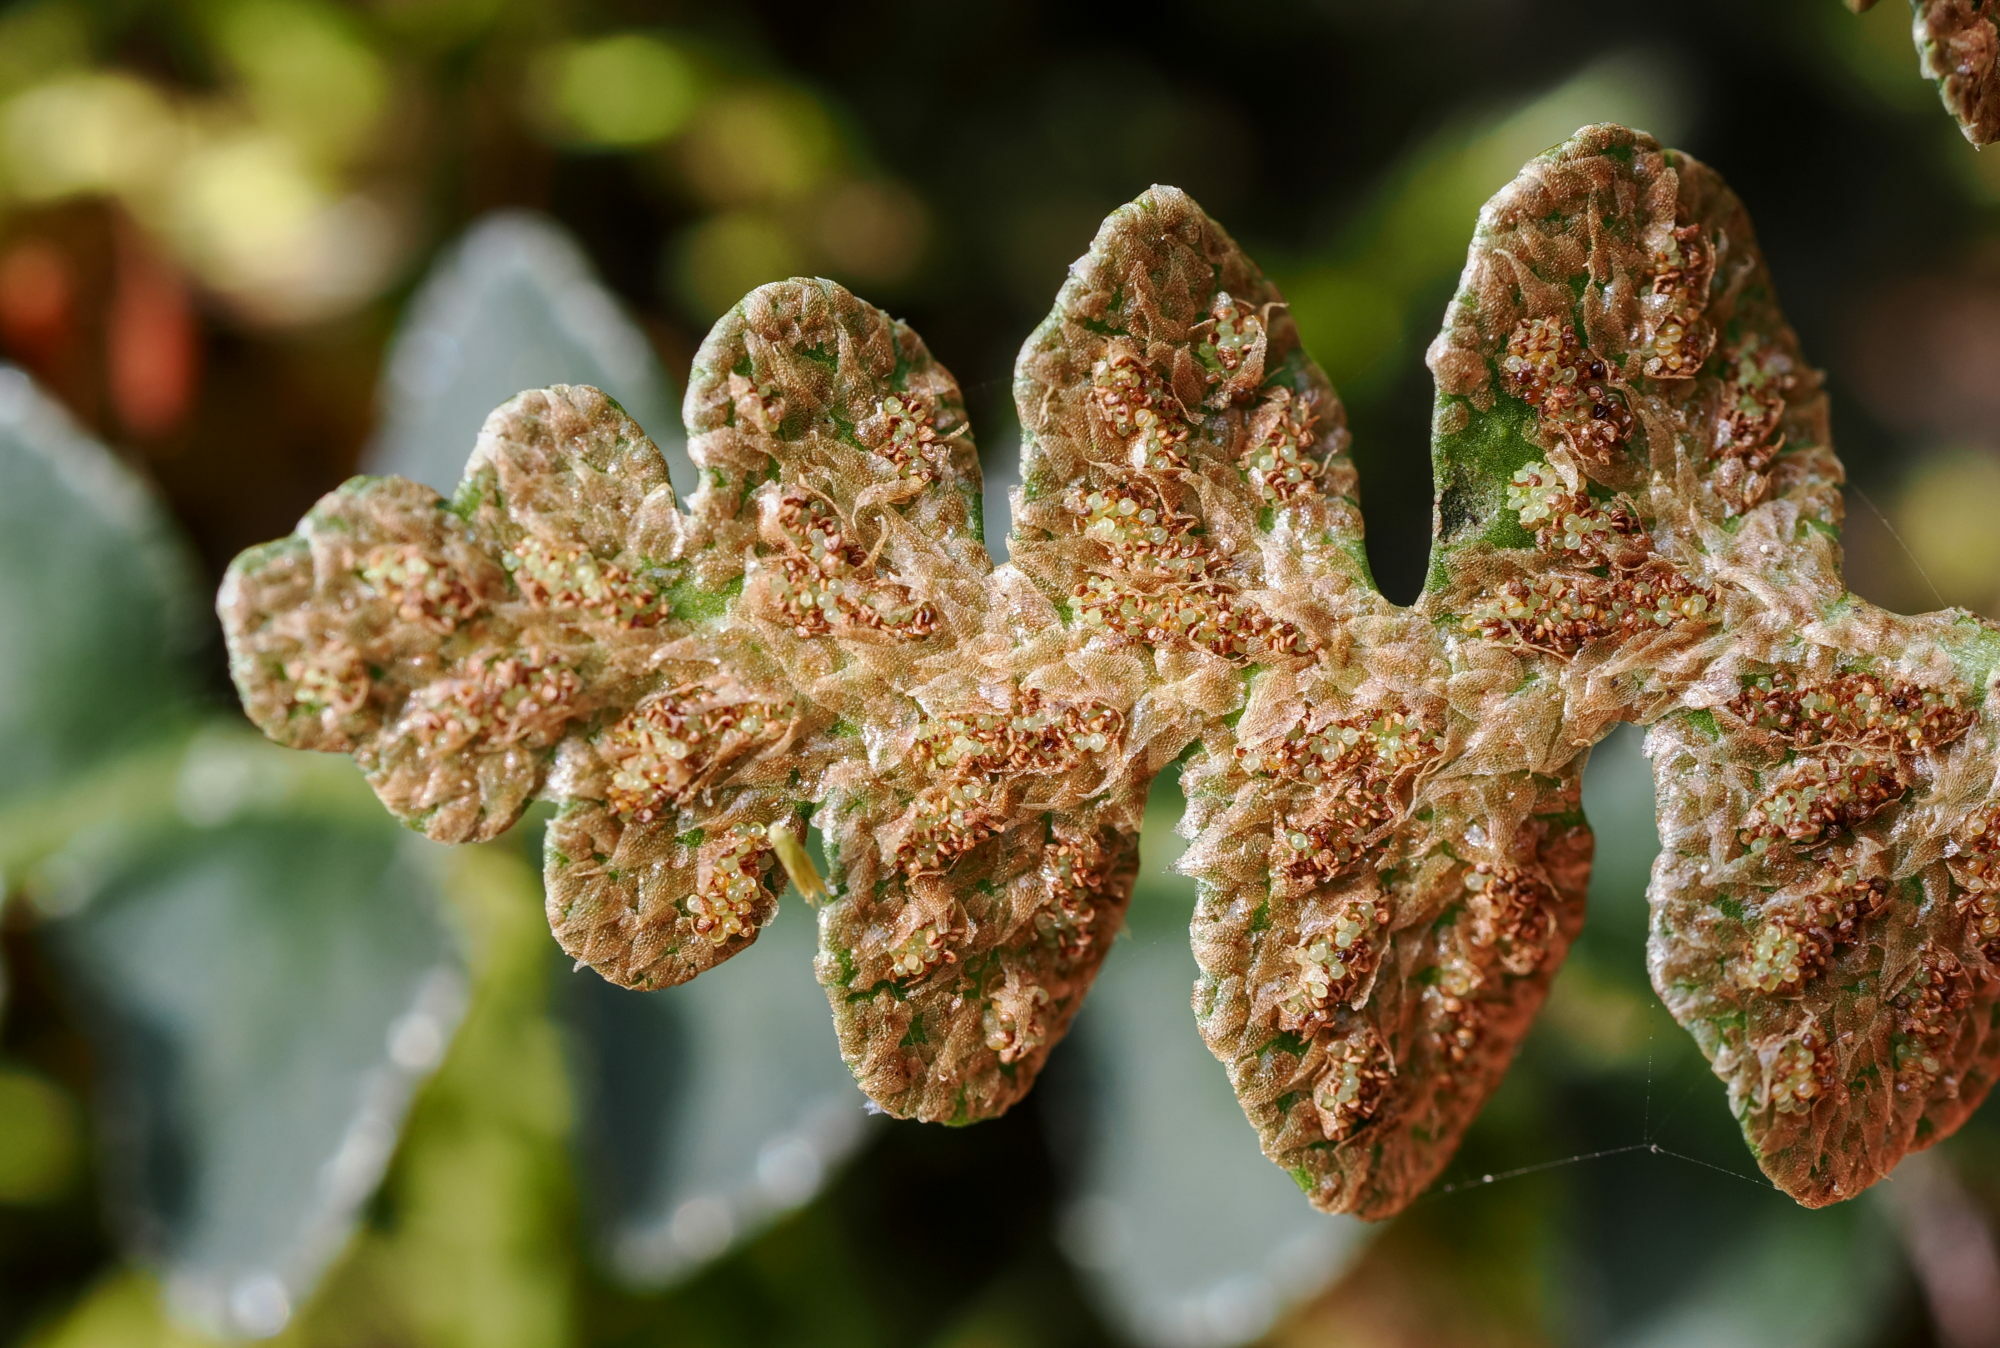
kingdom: Plantae
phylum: Tracheophyta
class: Polypodiopsida
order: Polypodiales
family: Aspleniaceae
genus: Asplenium
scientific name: Asplenium ceterach
